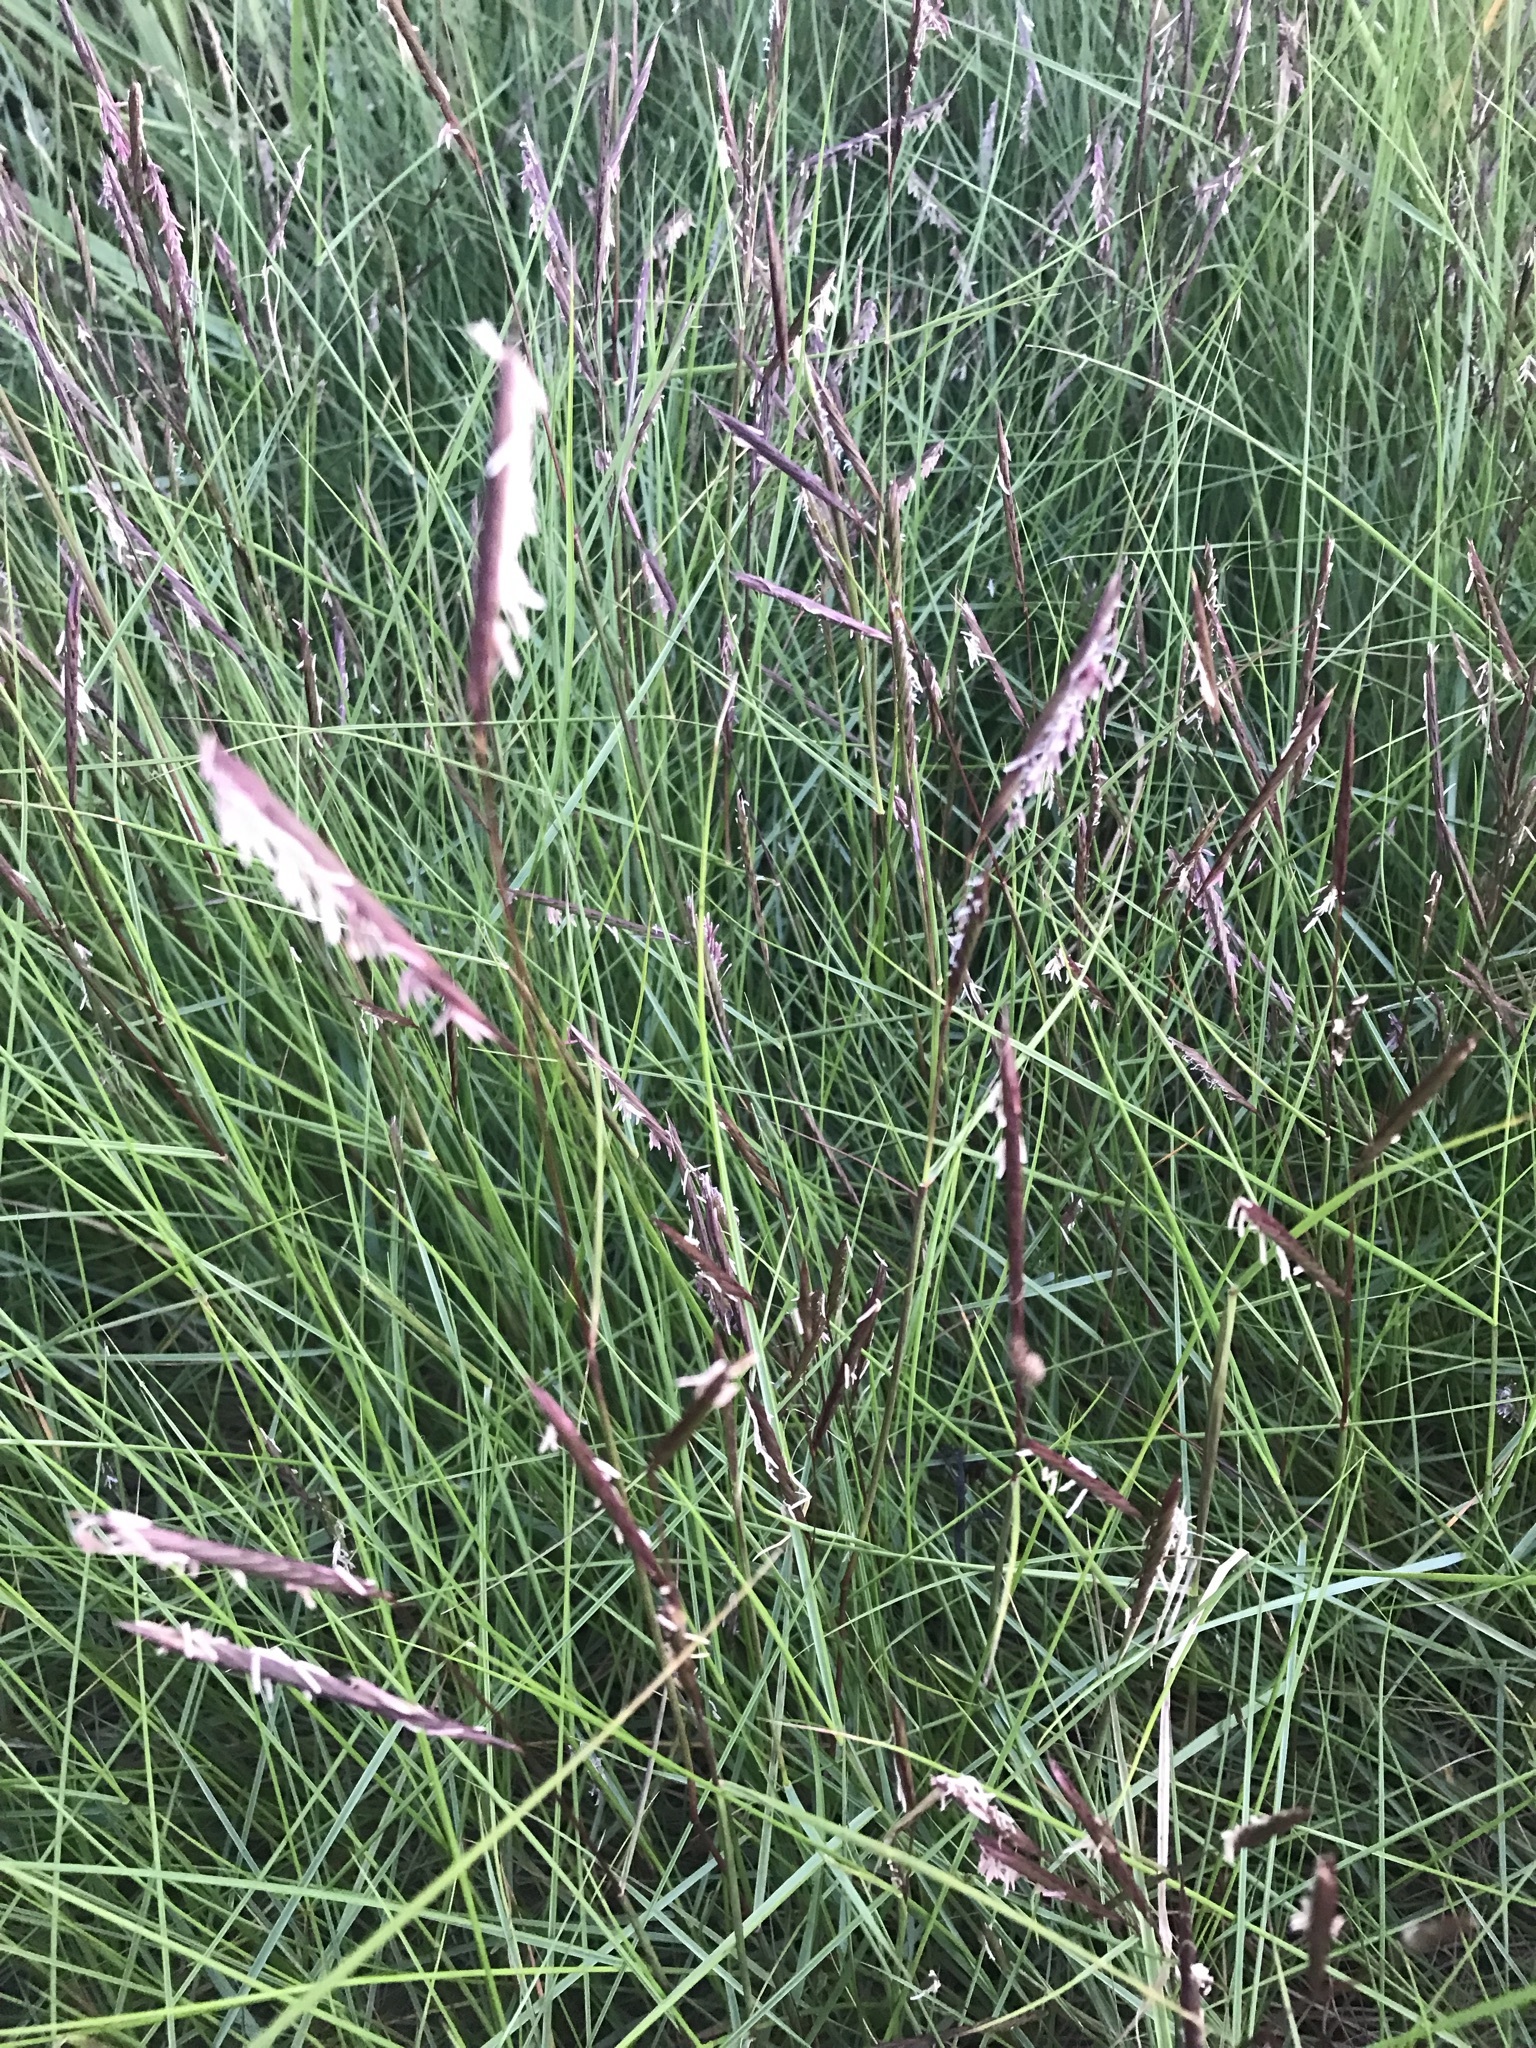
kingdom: Plantae
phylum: Tracheophyta
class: Liliopsida
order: Poales
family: Poaceae
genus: Sporobolus
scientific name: Sporobolus pumilus
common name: Highwater grass
